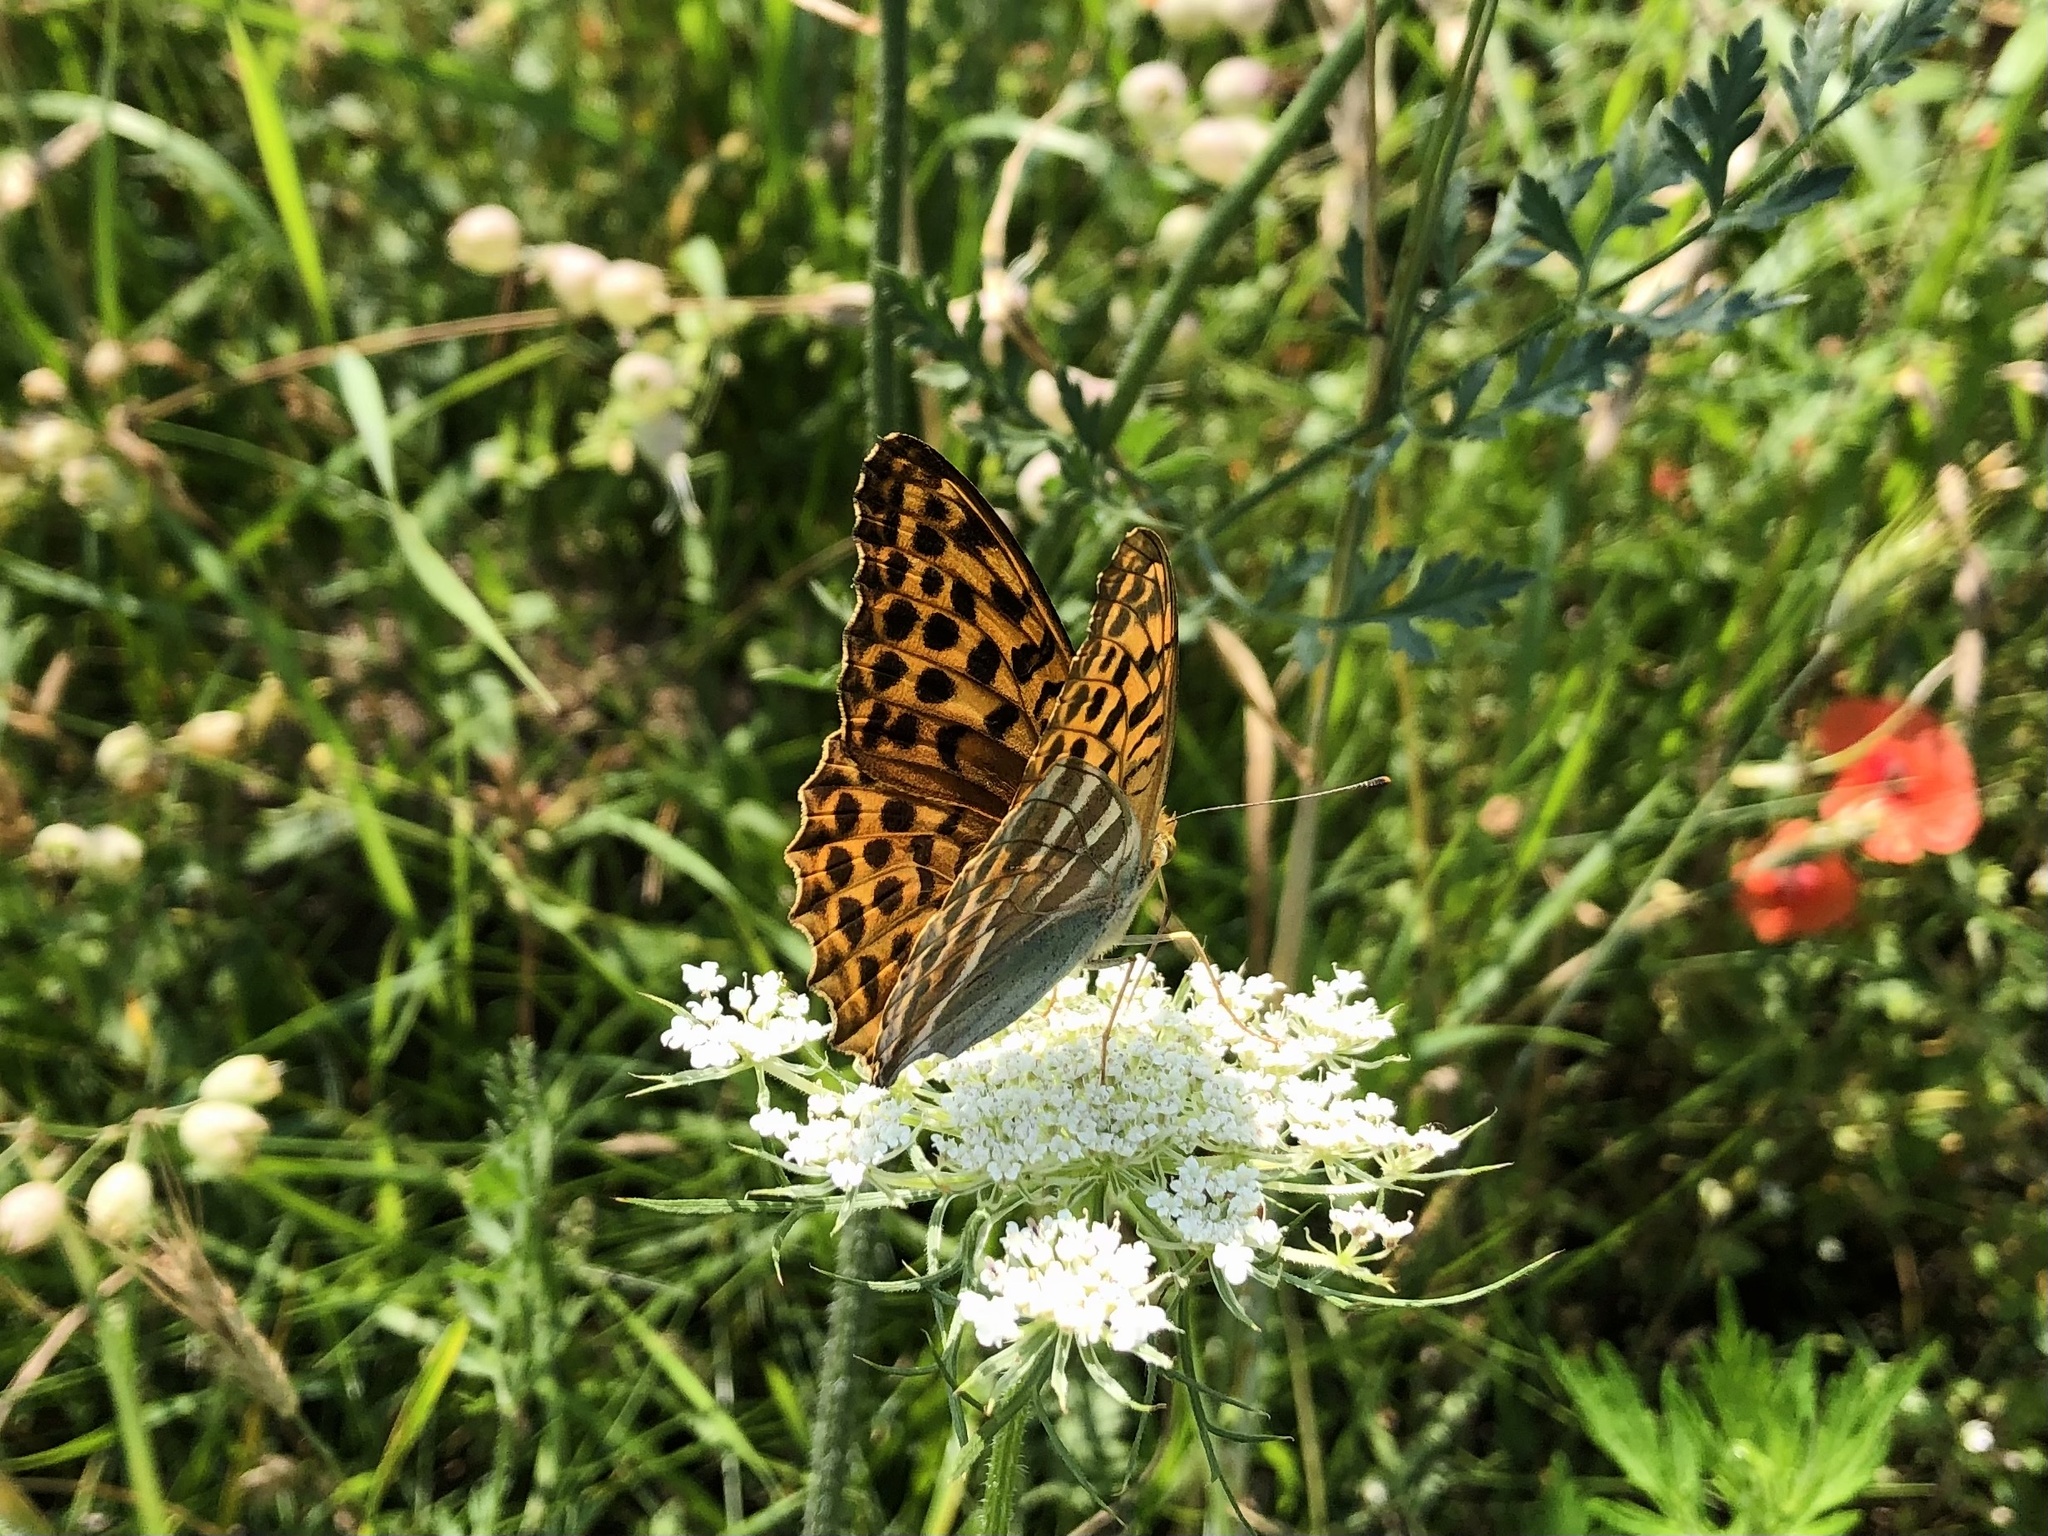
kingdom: Animalia
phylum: Arthropoda
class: Insecta
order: Lepidoptera
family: Nymphalidae
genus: Argynnis
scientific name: Argynnis paphia
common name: Silver-washed fritillary
